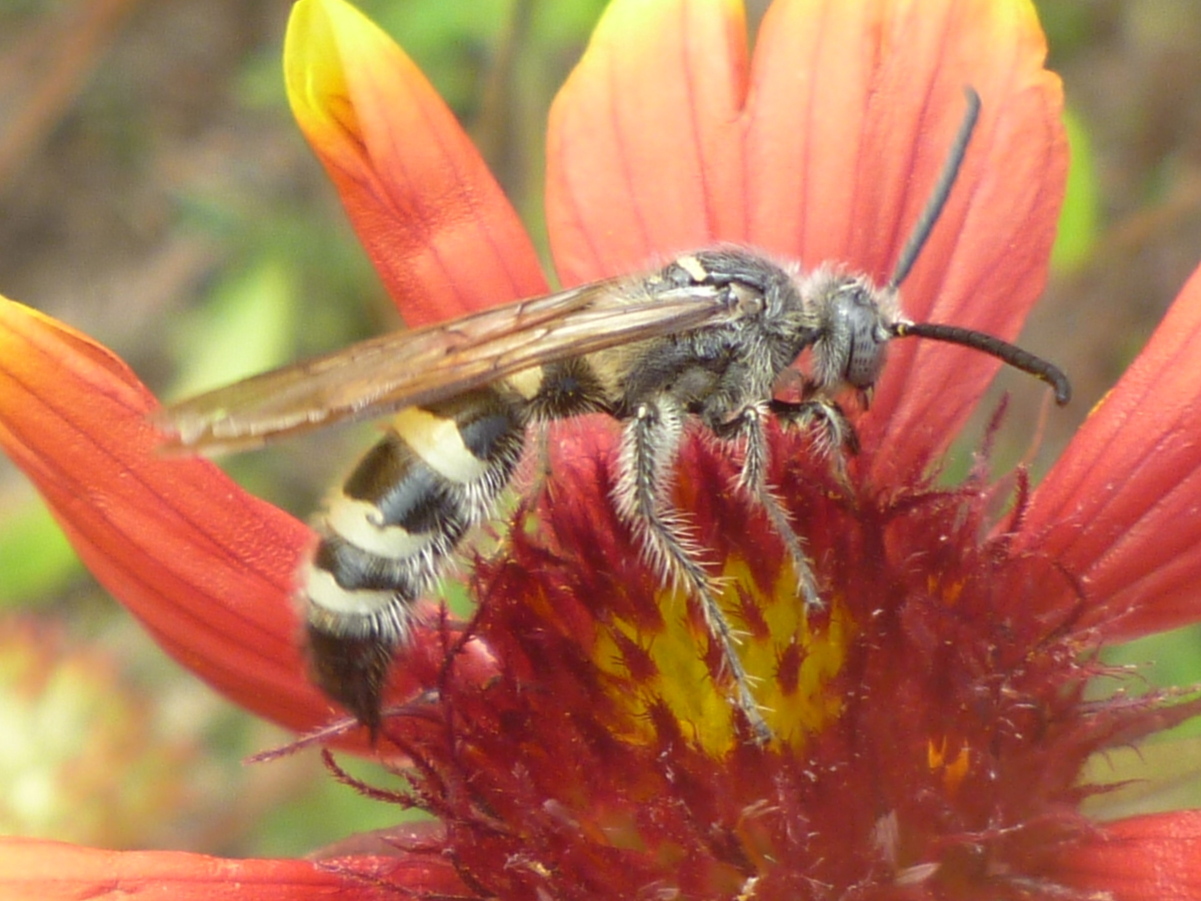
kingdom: Animalia
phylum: Arthropoda
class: Insecta
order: Hymenoptera
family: Scoliidae
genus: Dielis
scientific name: Dielis
